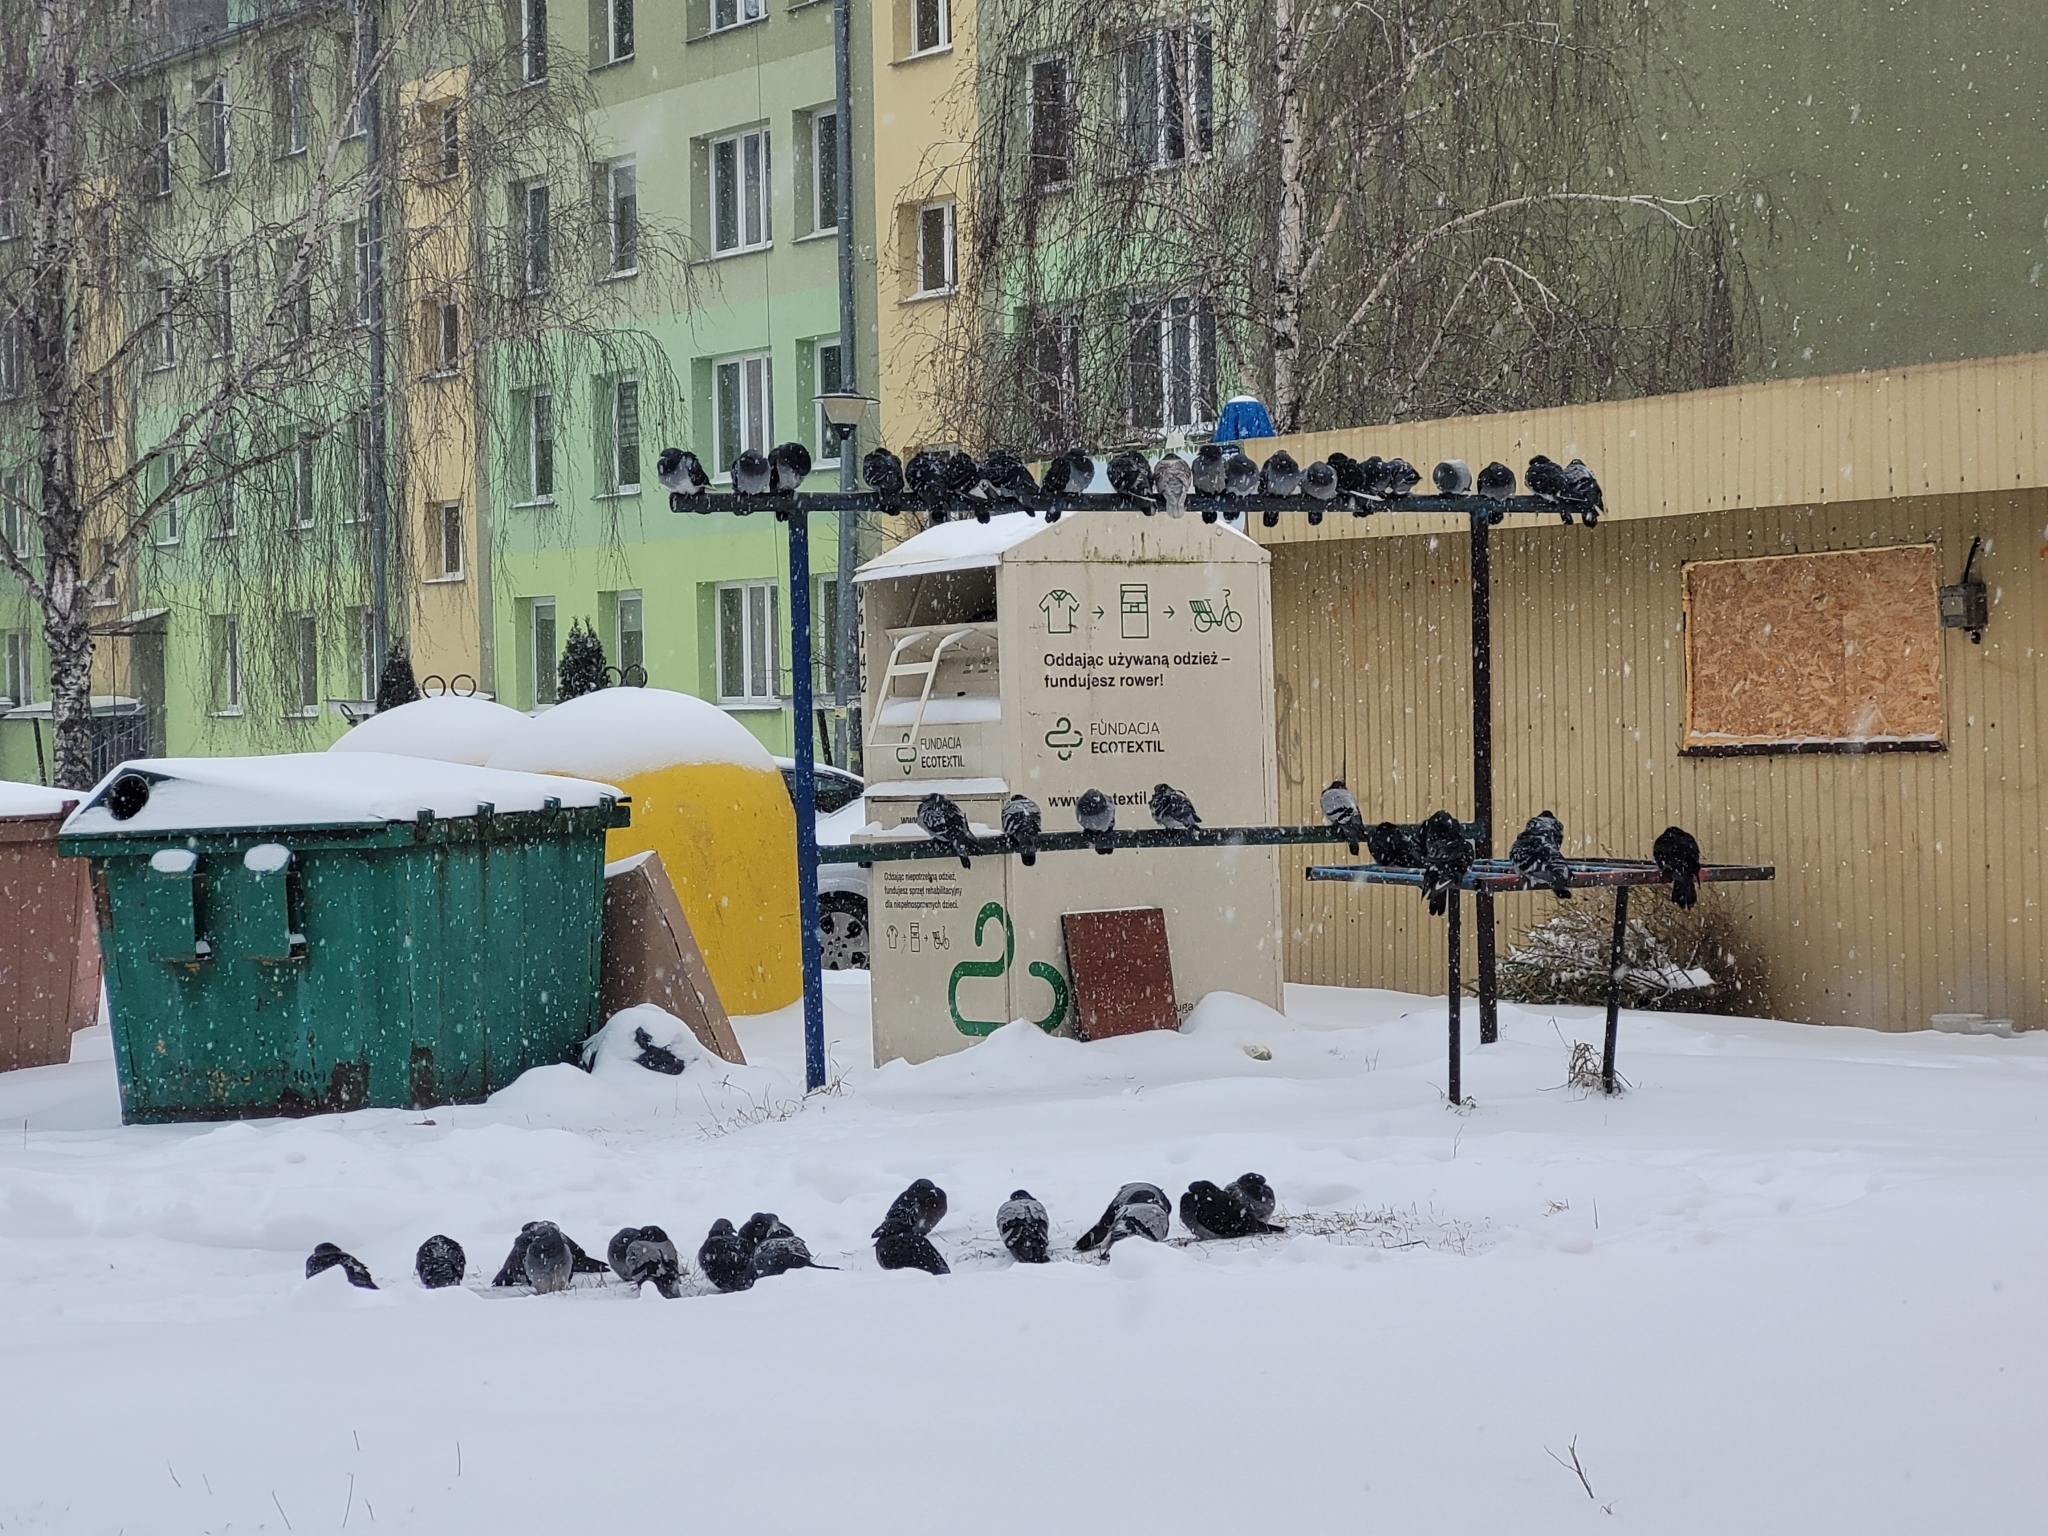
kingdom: Animalia
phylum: Chordata
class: Aves
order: Columbiformes
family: Columbidae
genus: Columba
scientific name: Columba livia
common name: Rock pigeon
